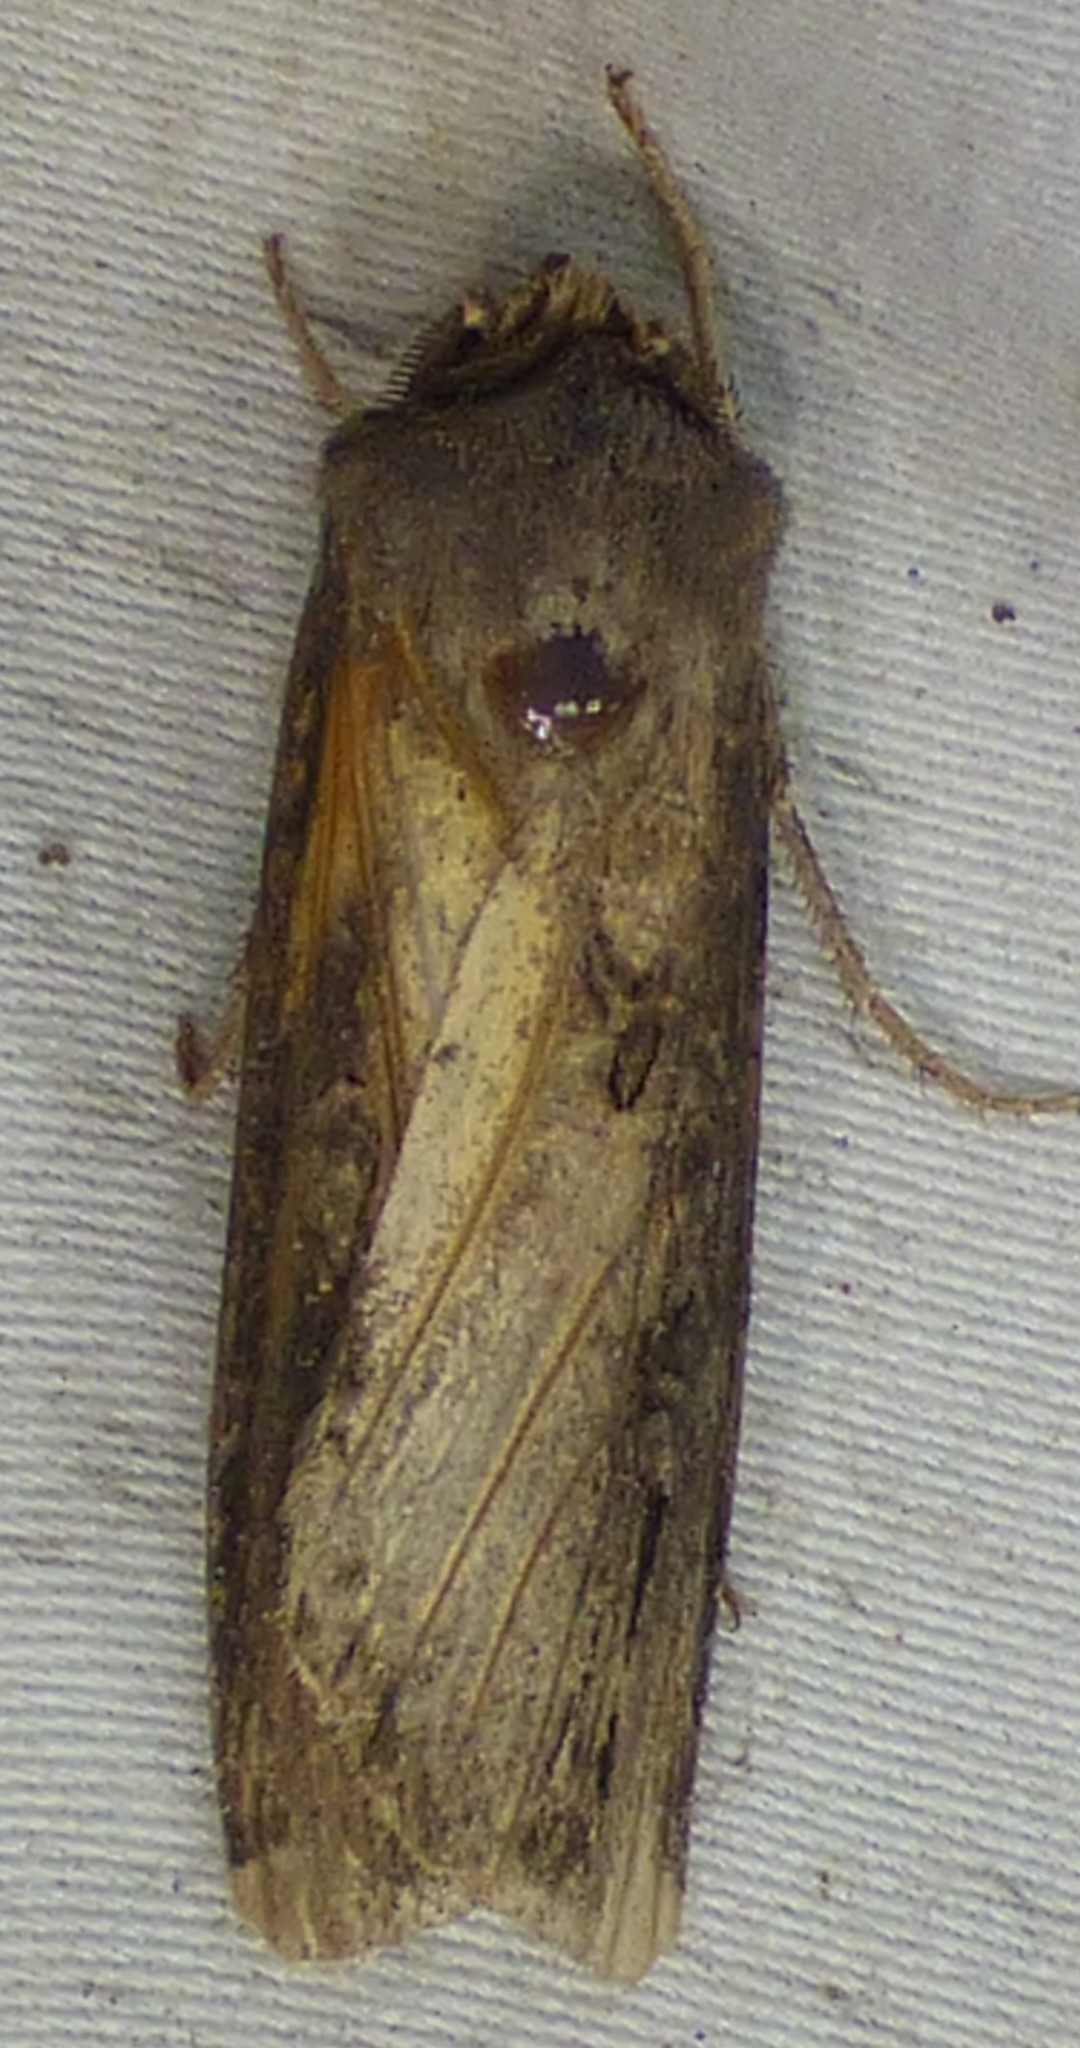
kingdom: Animalia
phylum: Arthropoda
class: Insecta
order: Lepidoptera
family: Noctuidae
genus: Agrotis
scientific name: Agrotis ipsilon
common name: Dark sword-grass
